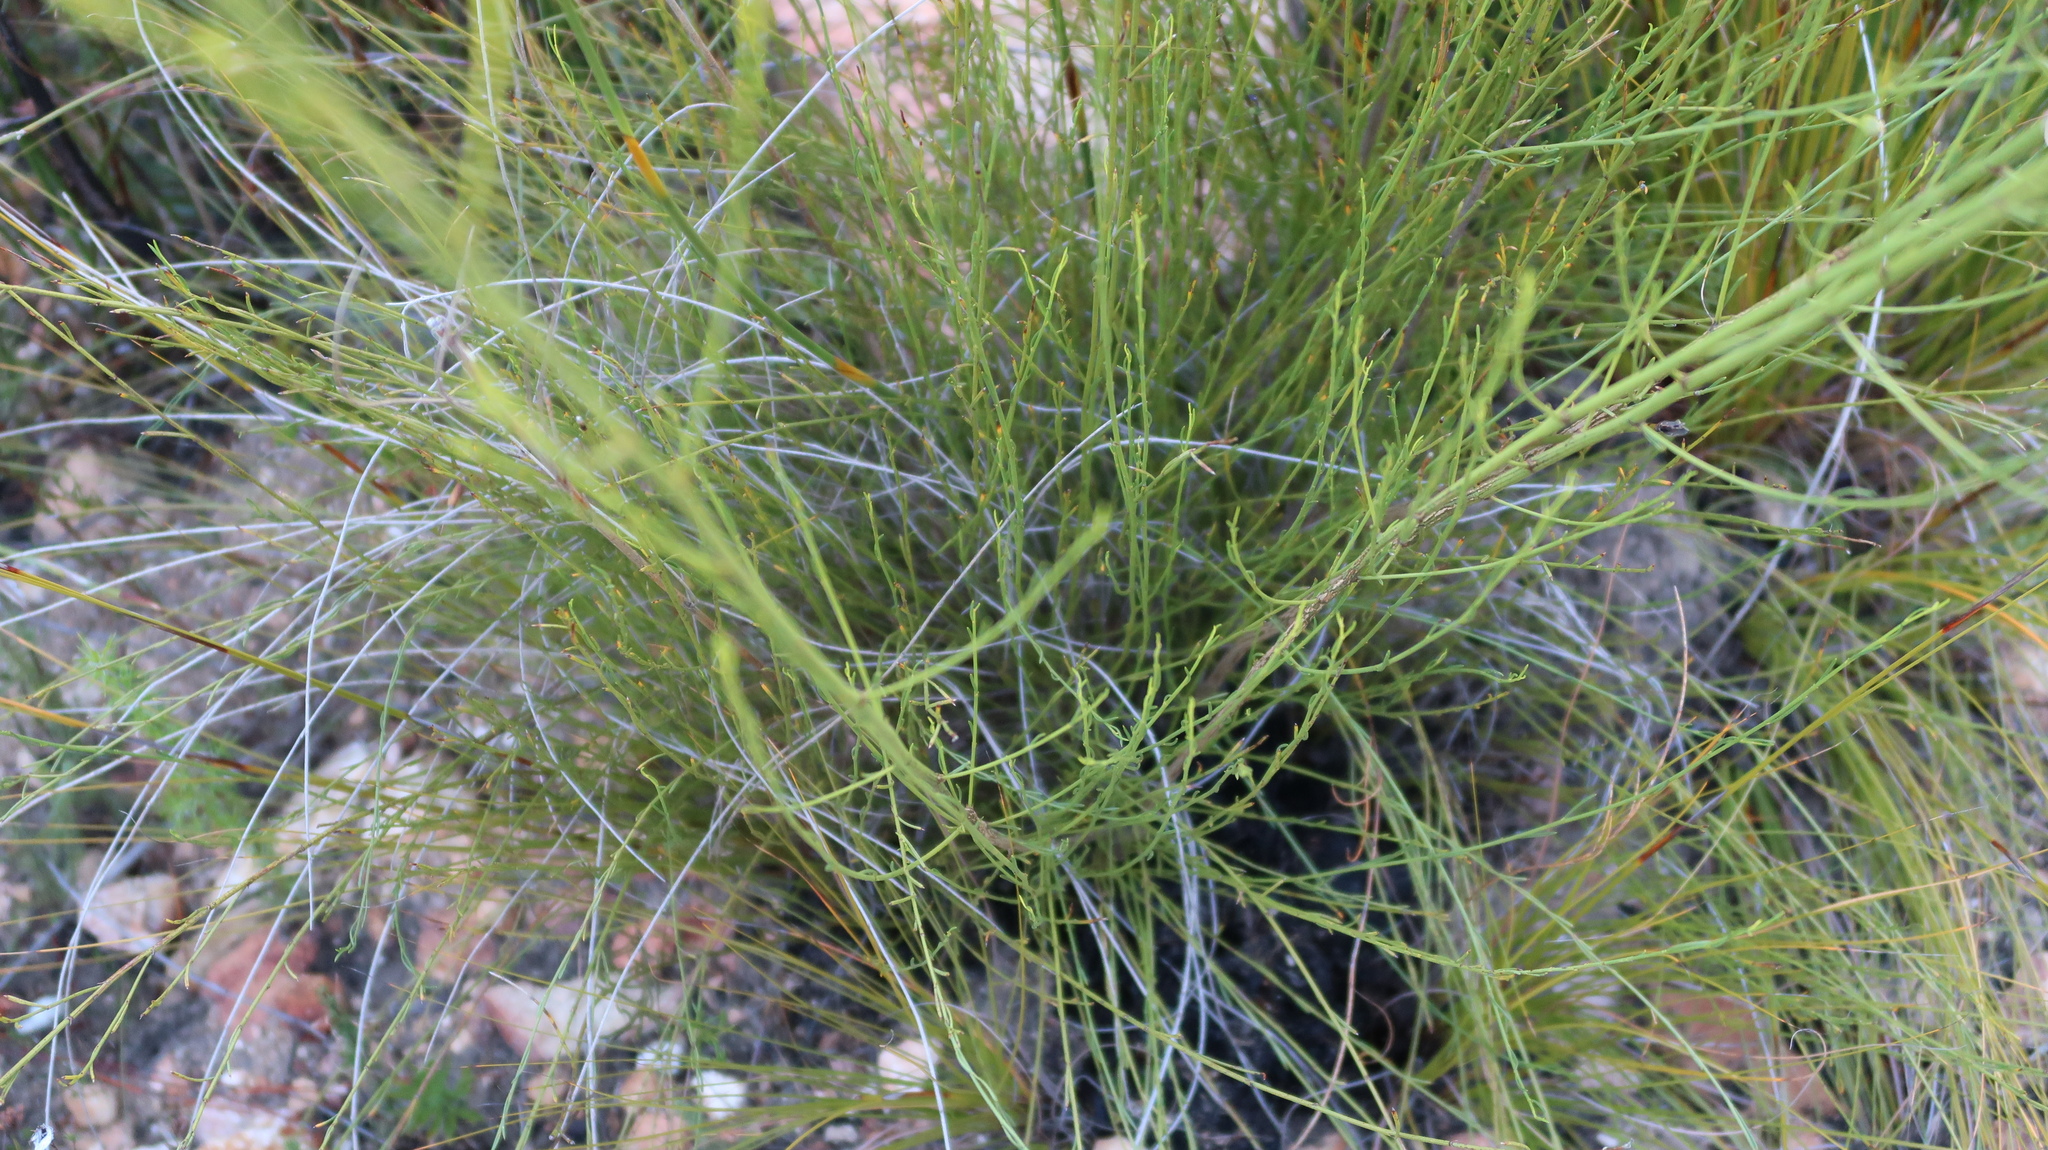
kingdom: Plantae
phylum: Tracheophyta
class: Magnoliopsida
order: Fabales
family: Fabaceae
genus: Psoralea
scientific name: Psoralea diturnerae
